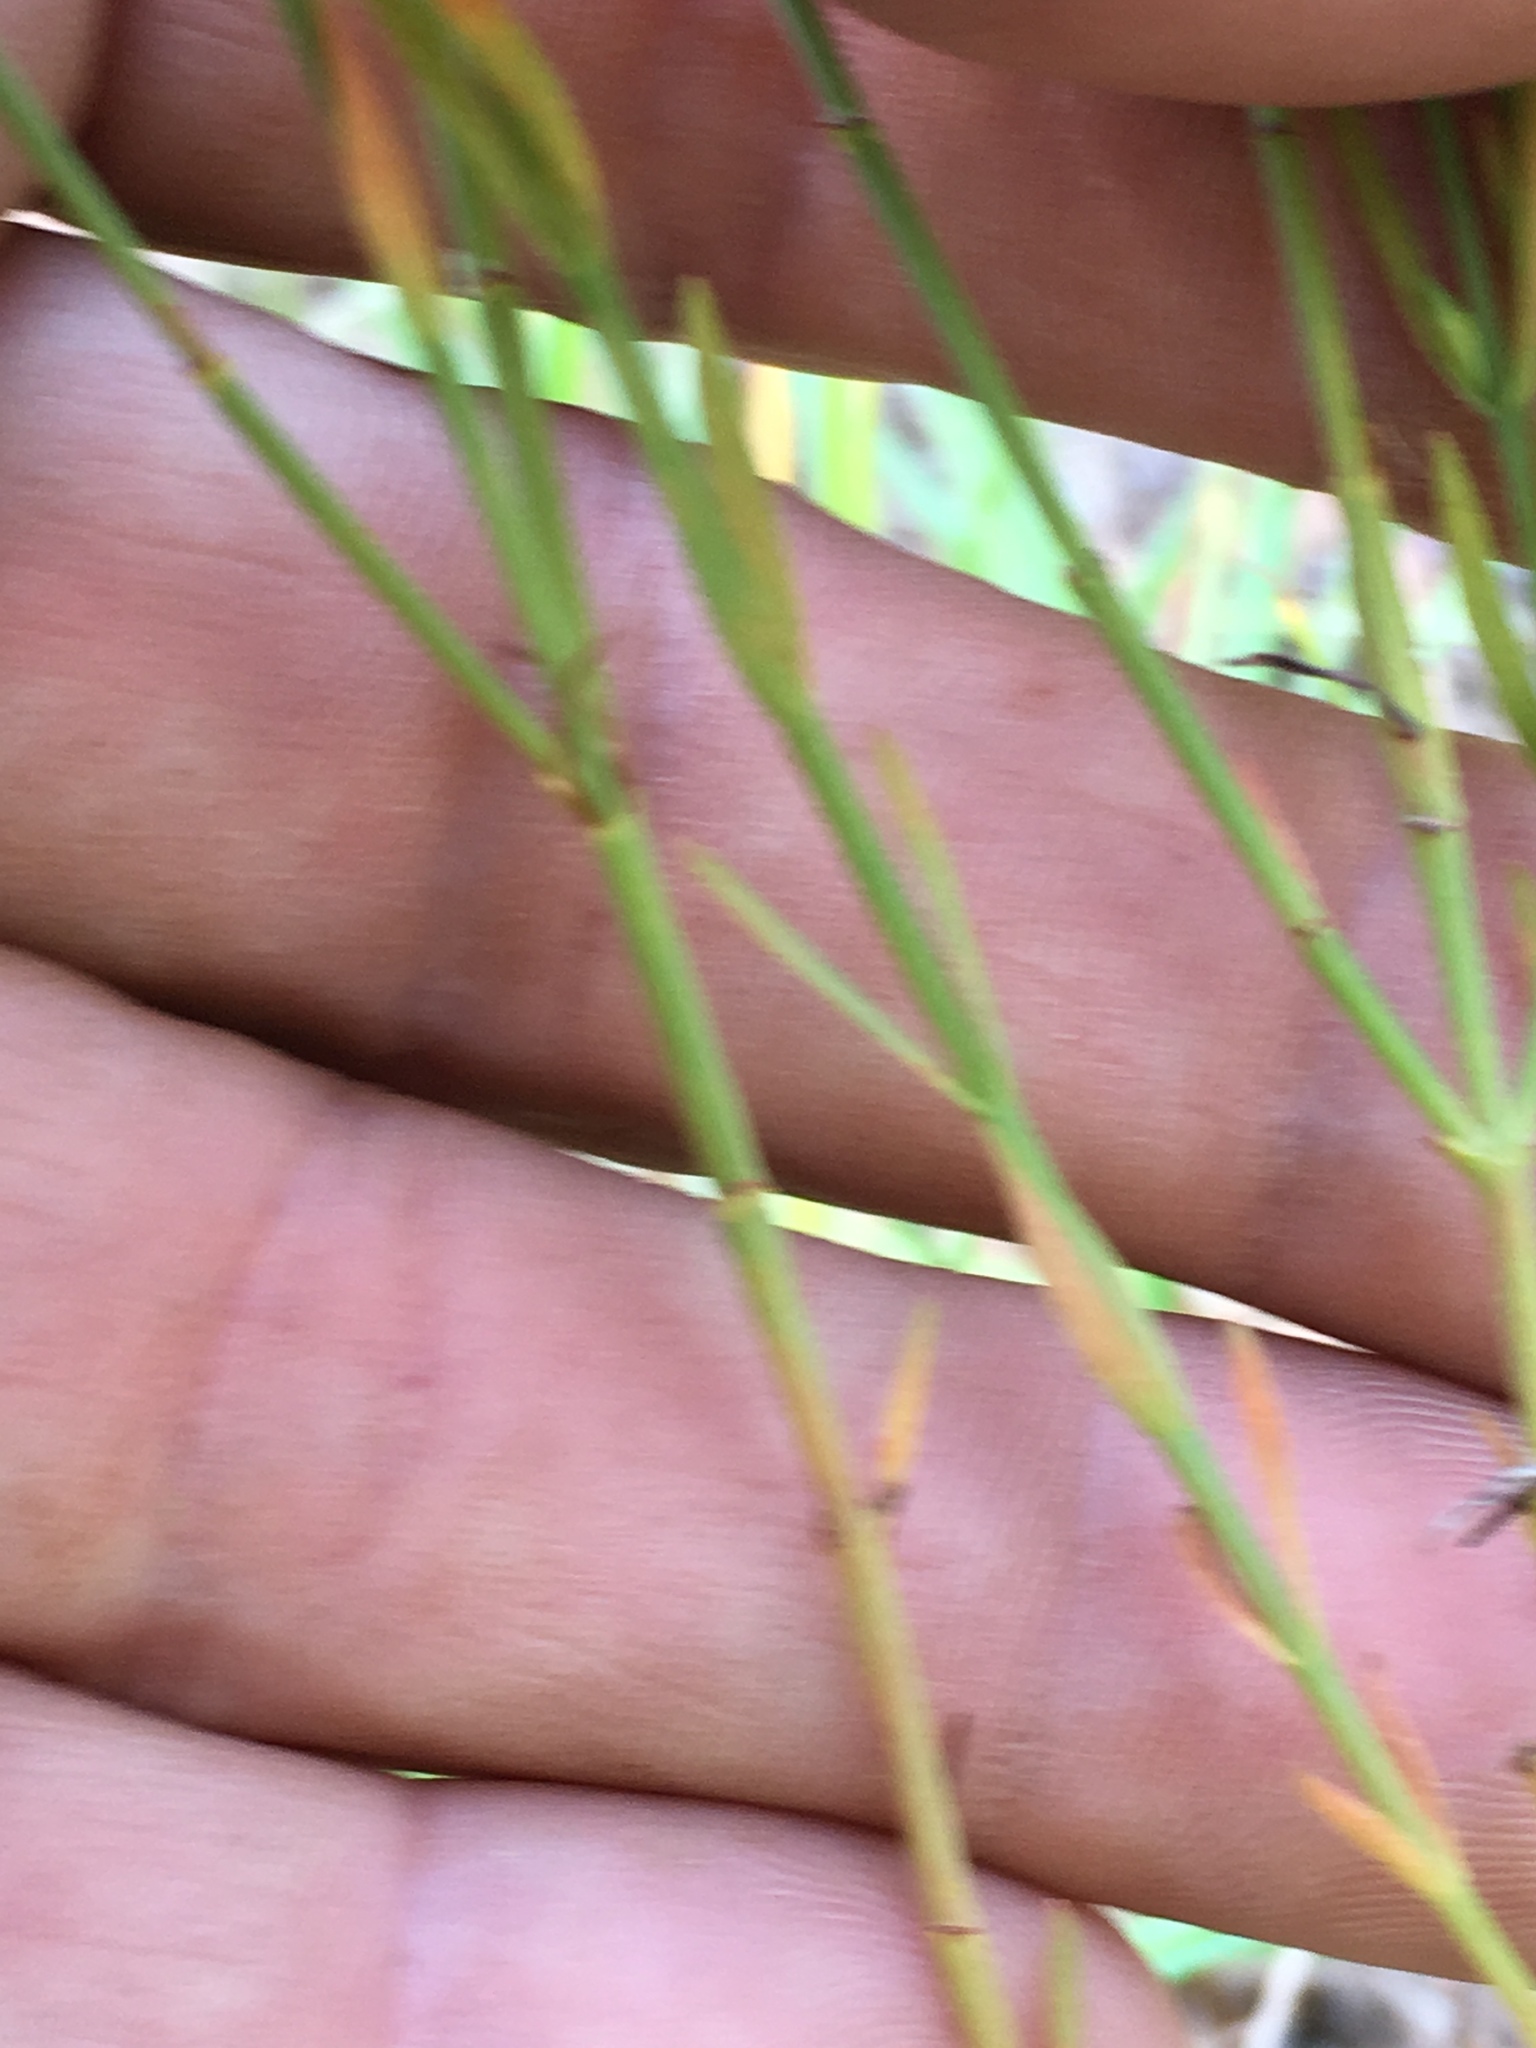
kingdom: Plantae
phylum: Tracheophyta
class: Magnoliopsida
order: Malpighiales
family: Hypericaceae
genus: Hypericum
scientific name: Hypericum drummondii
